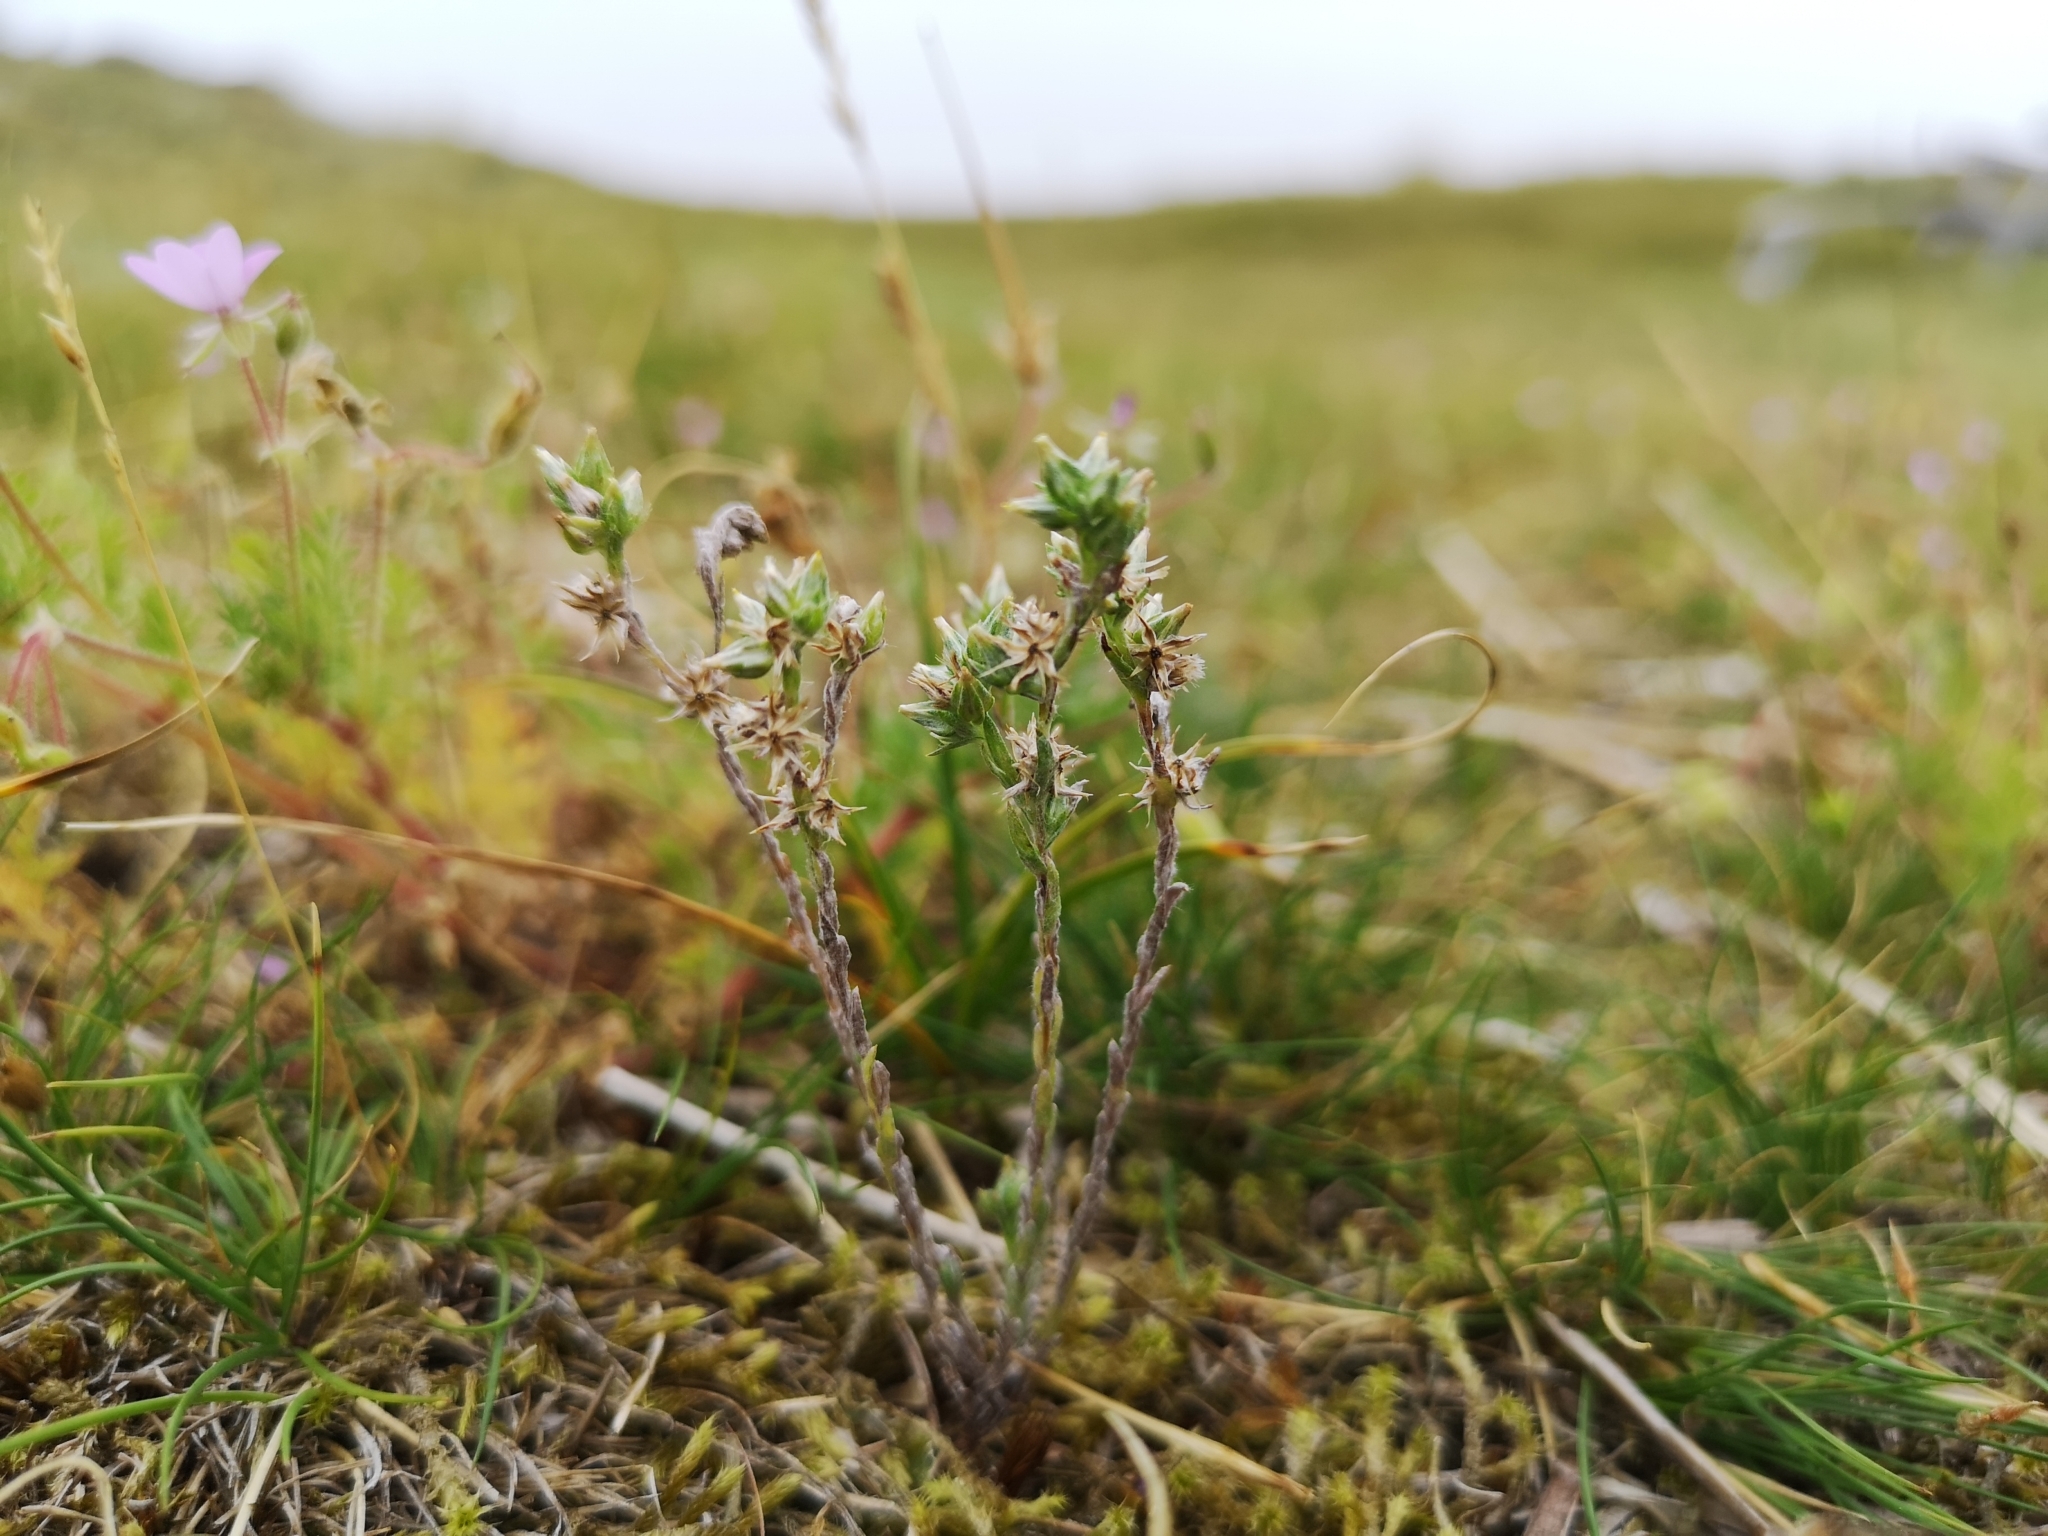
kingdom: Plantae
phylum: Tracheophyta
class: Magnoliopsida
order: Asterales
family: Asteraceae
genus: Logfia
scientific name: Logfia minima
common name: Little cottonrose
